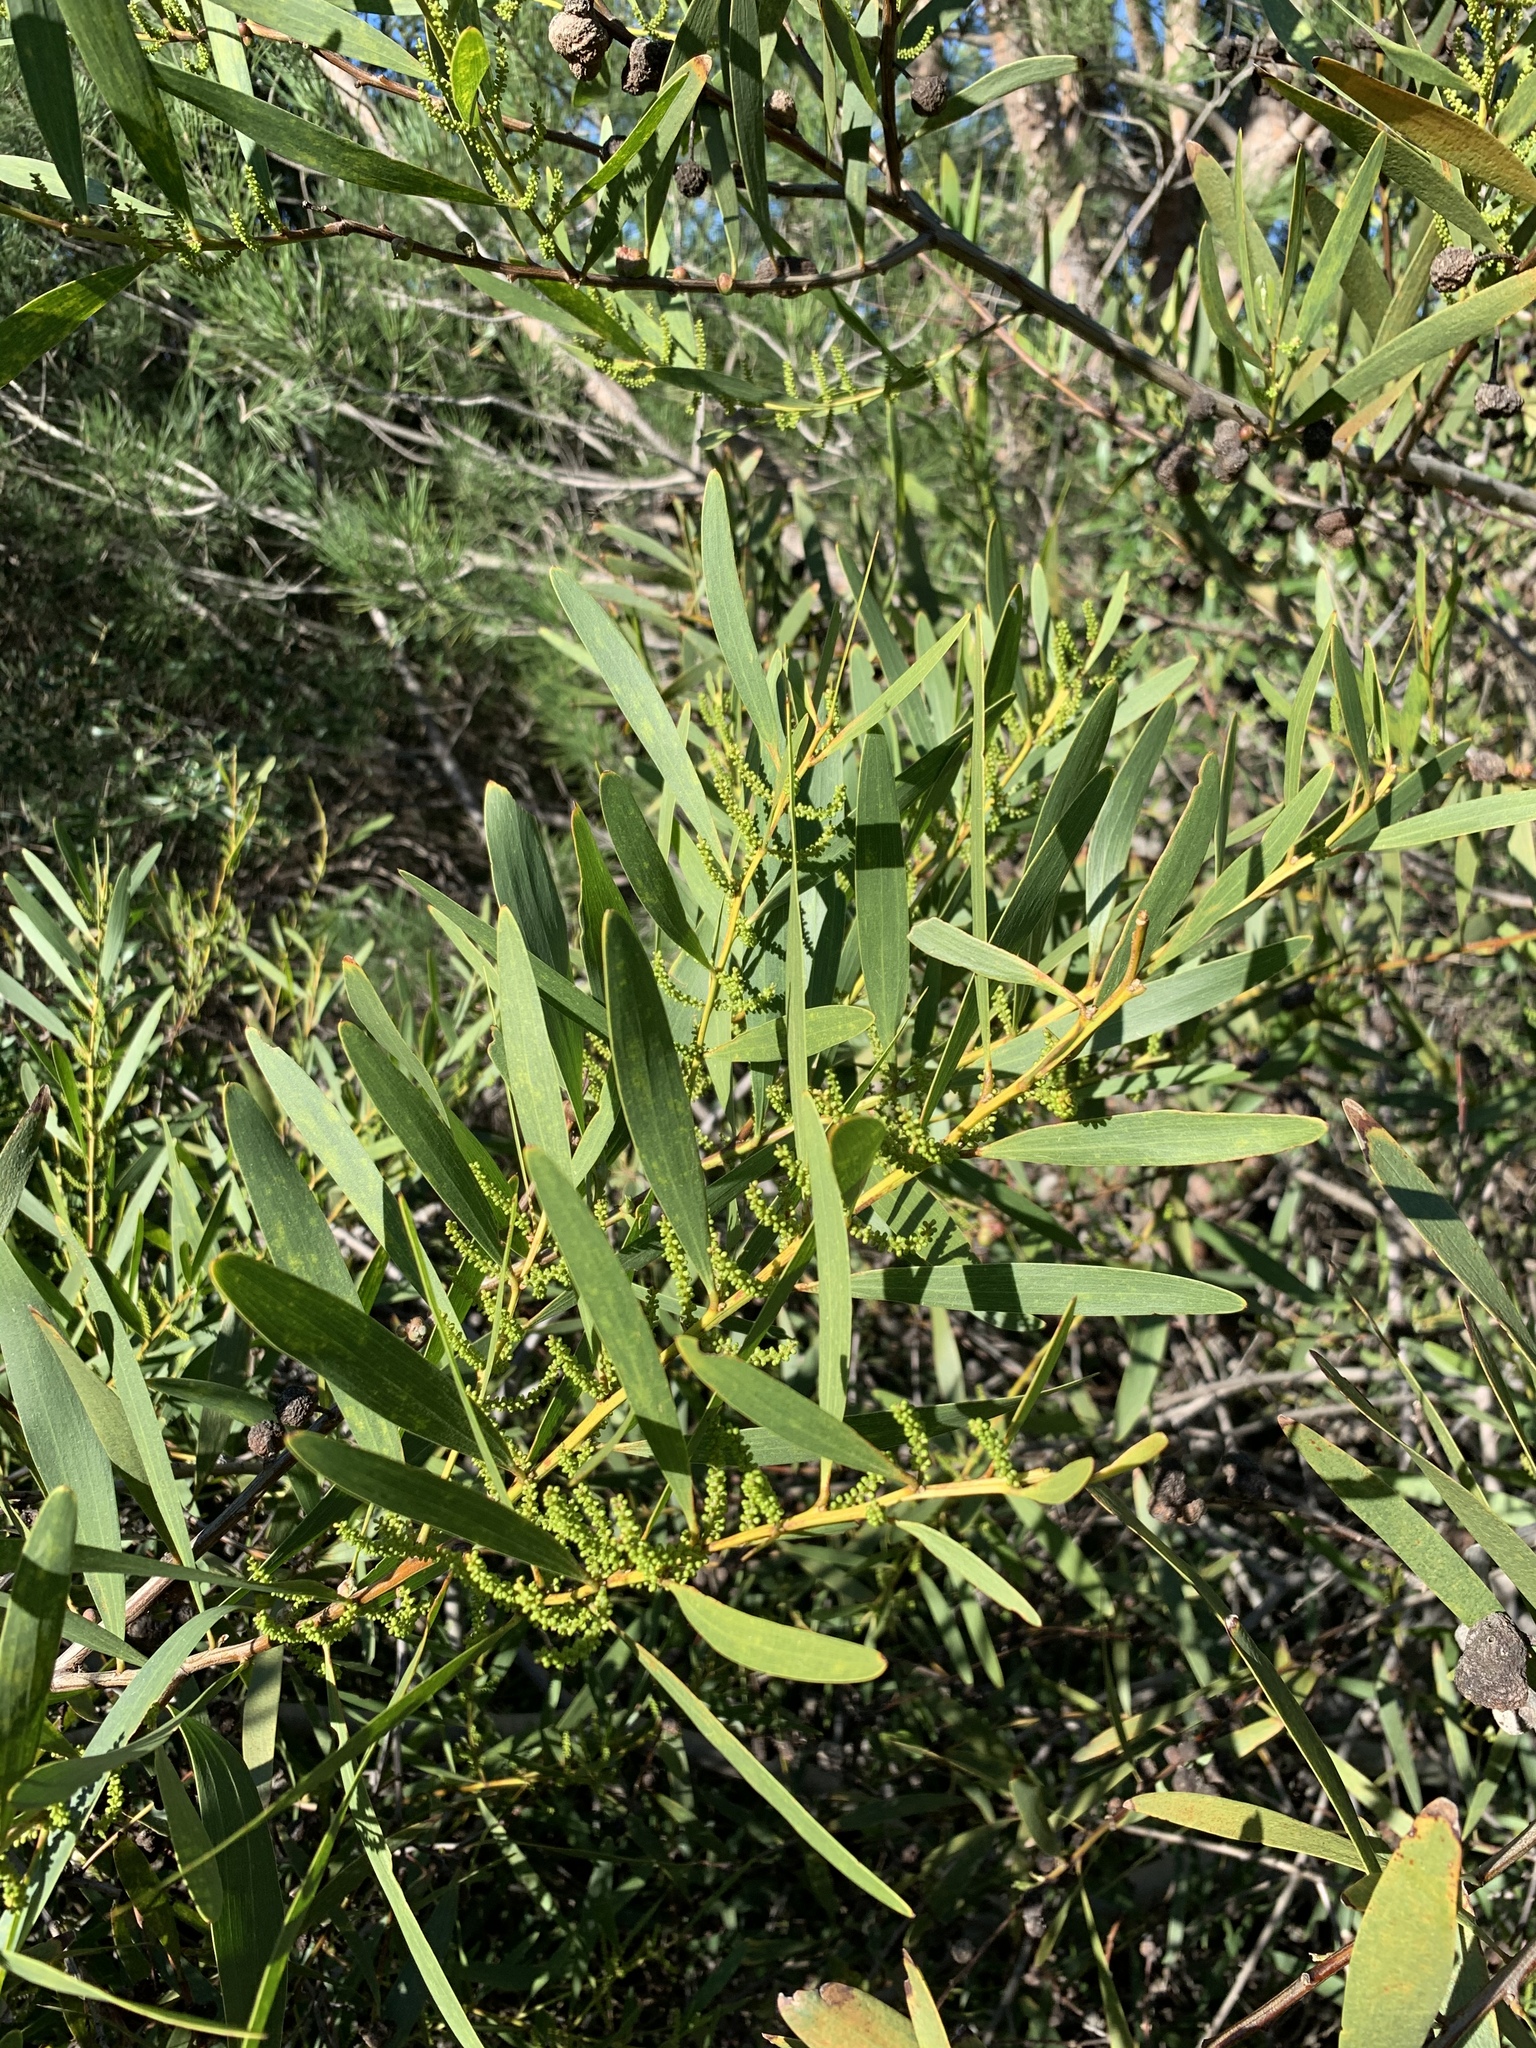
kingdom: Plantae
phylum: Tracheophyta
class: Magnoliopsida
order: Fabales
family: Fabaceae
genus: Acacia
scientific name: Acacia longifolia
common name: Sydney golden wattle
